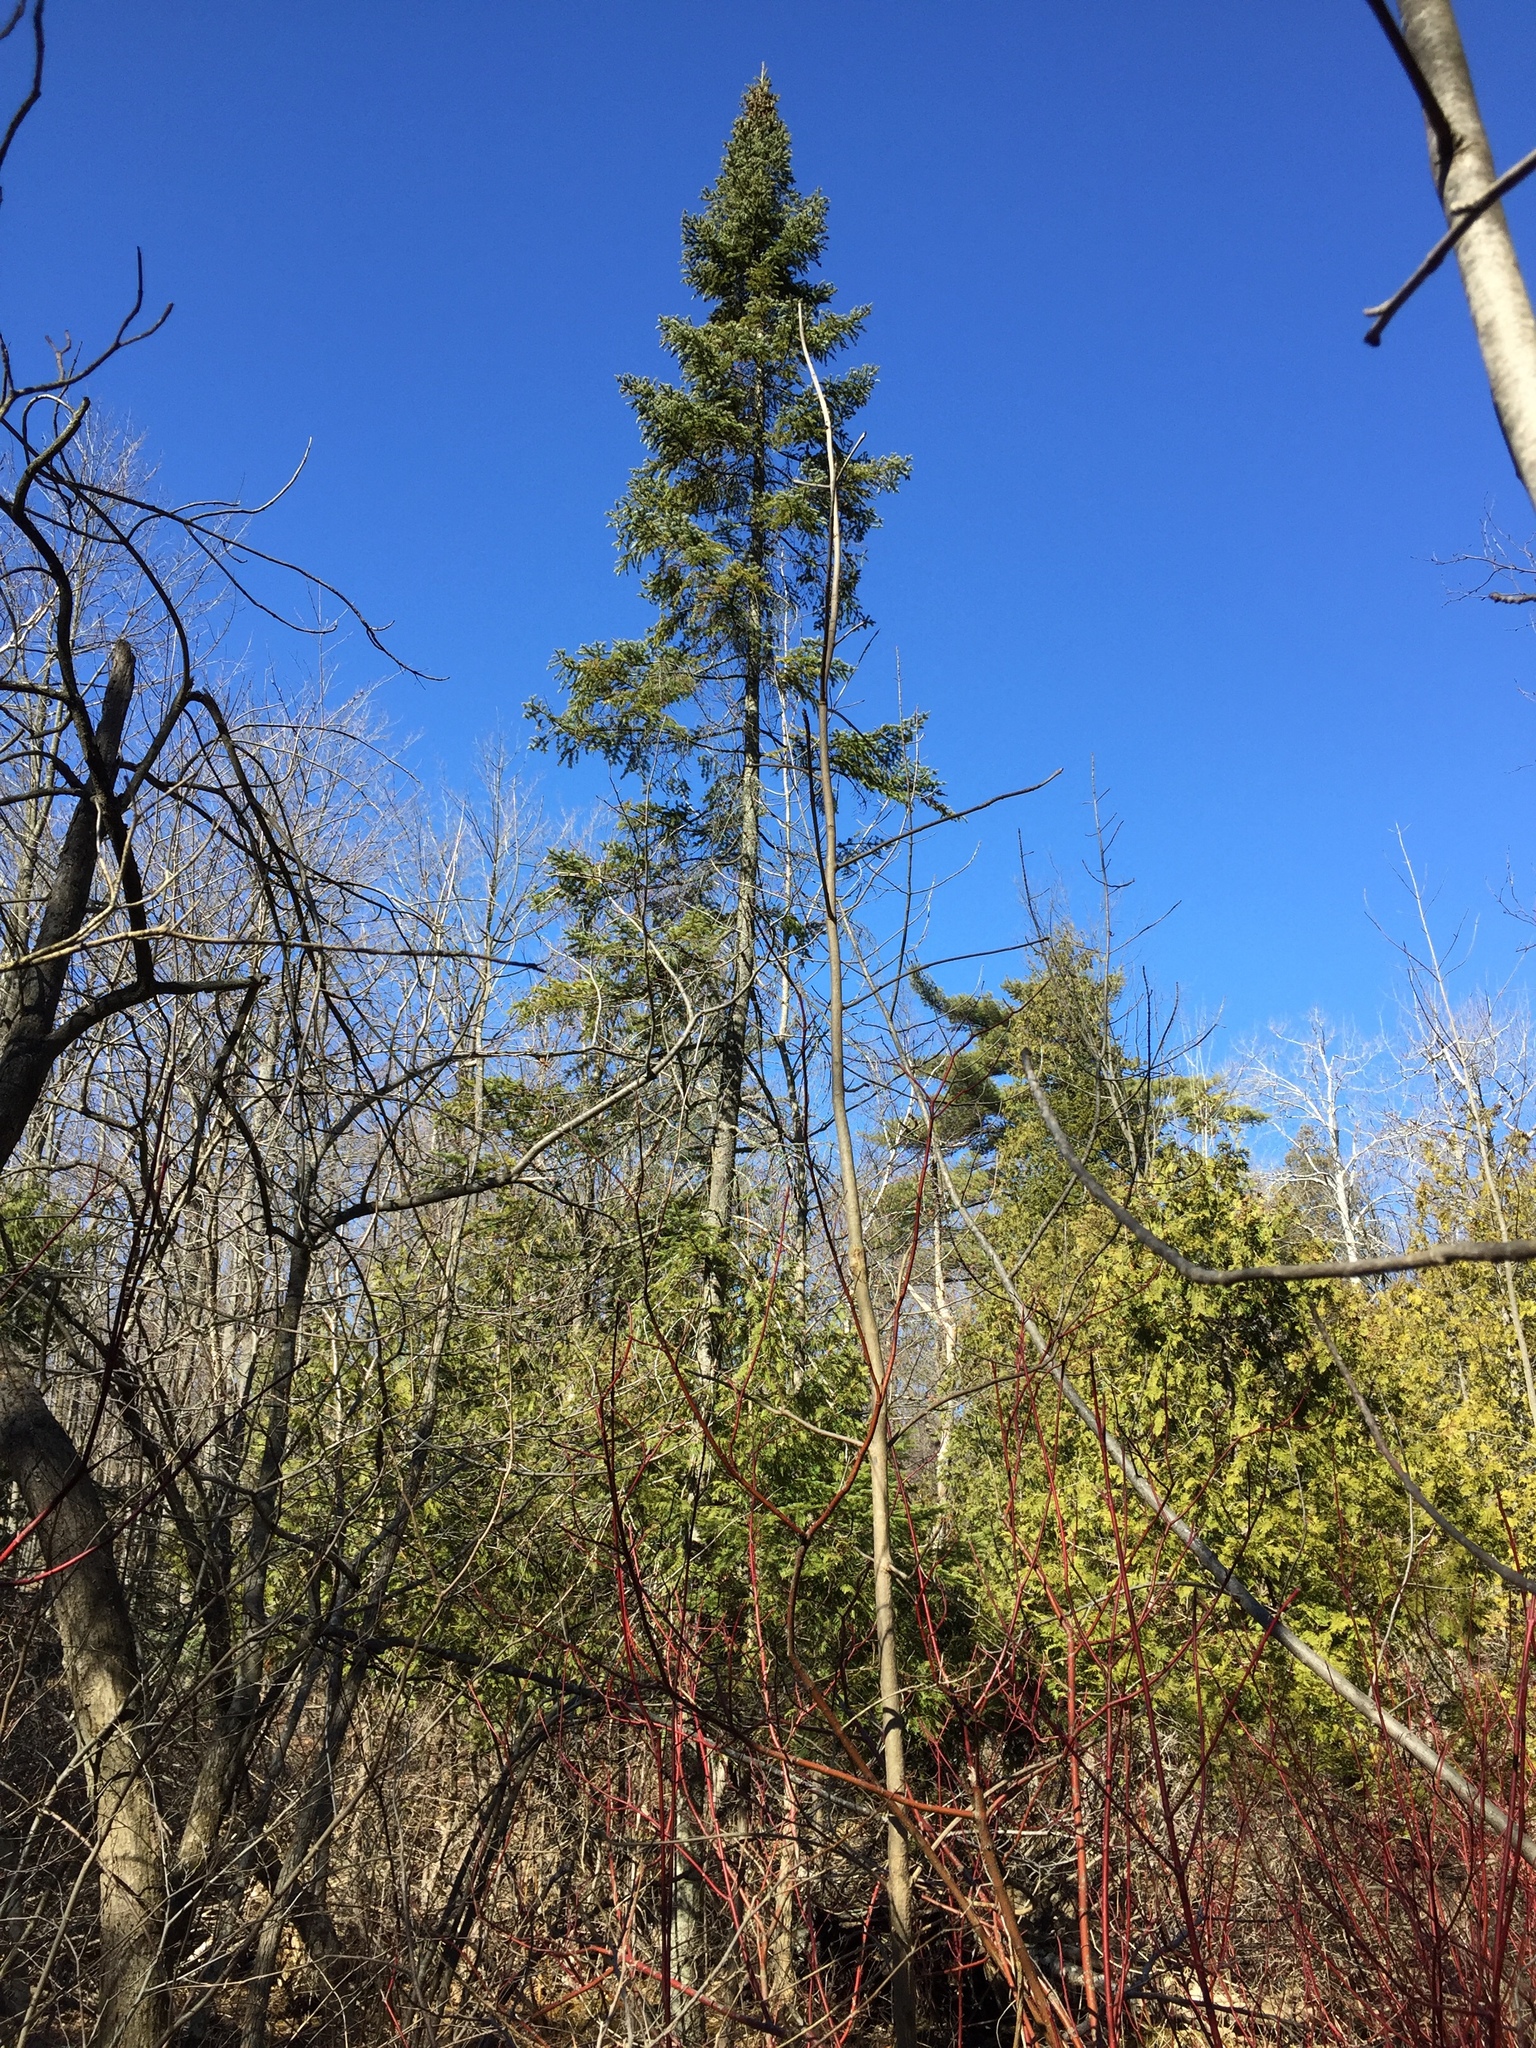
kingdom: Plantae
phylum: Tracheophyta
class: Pinopsida
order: Pinales
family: Pinaceae
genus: Abies
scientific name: Abies balsamea
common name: Balsam fir
